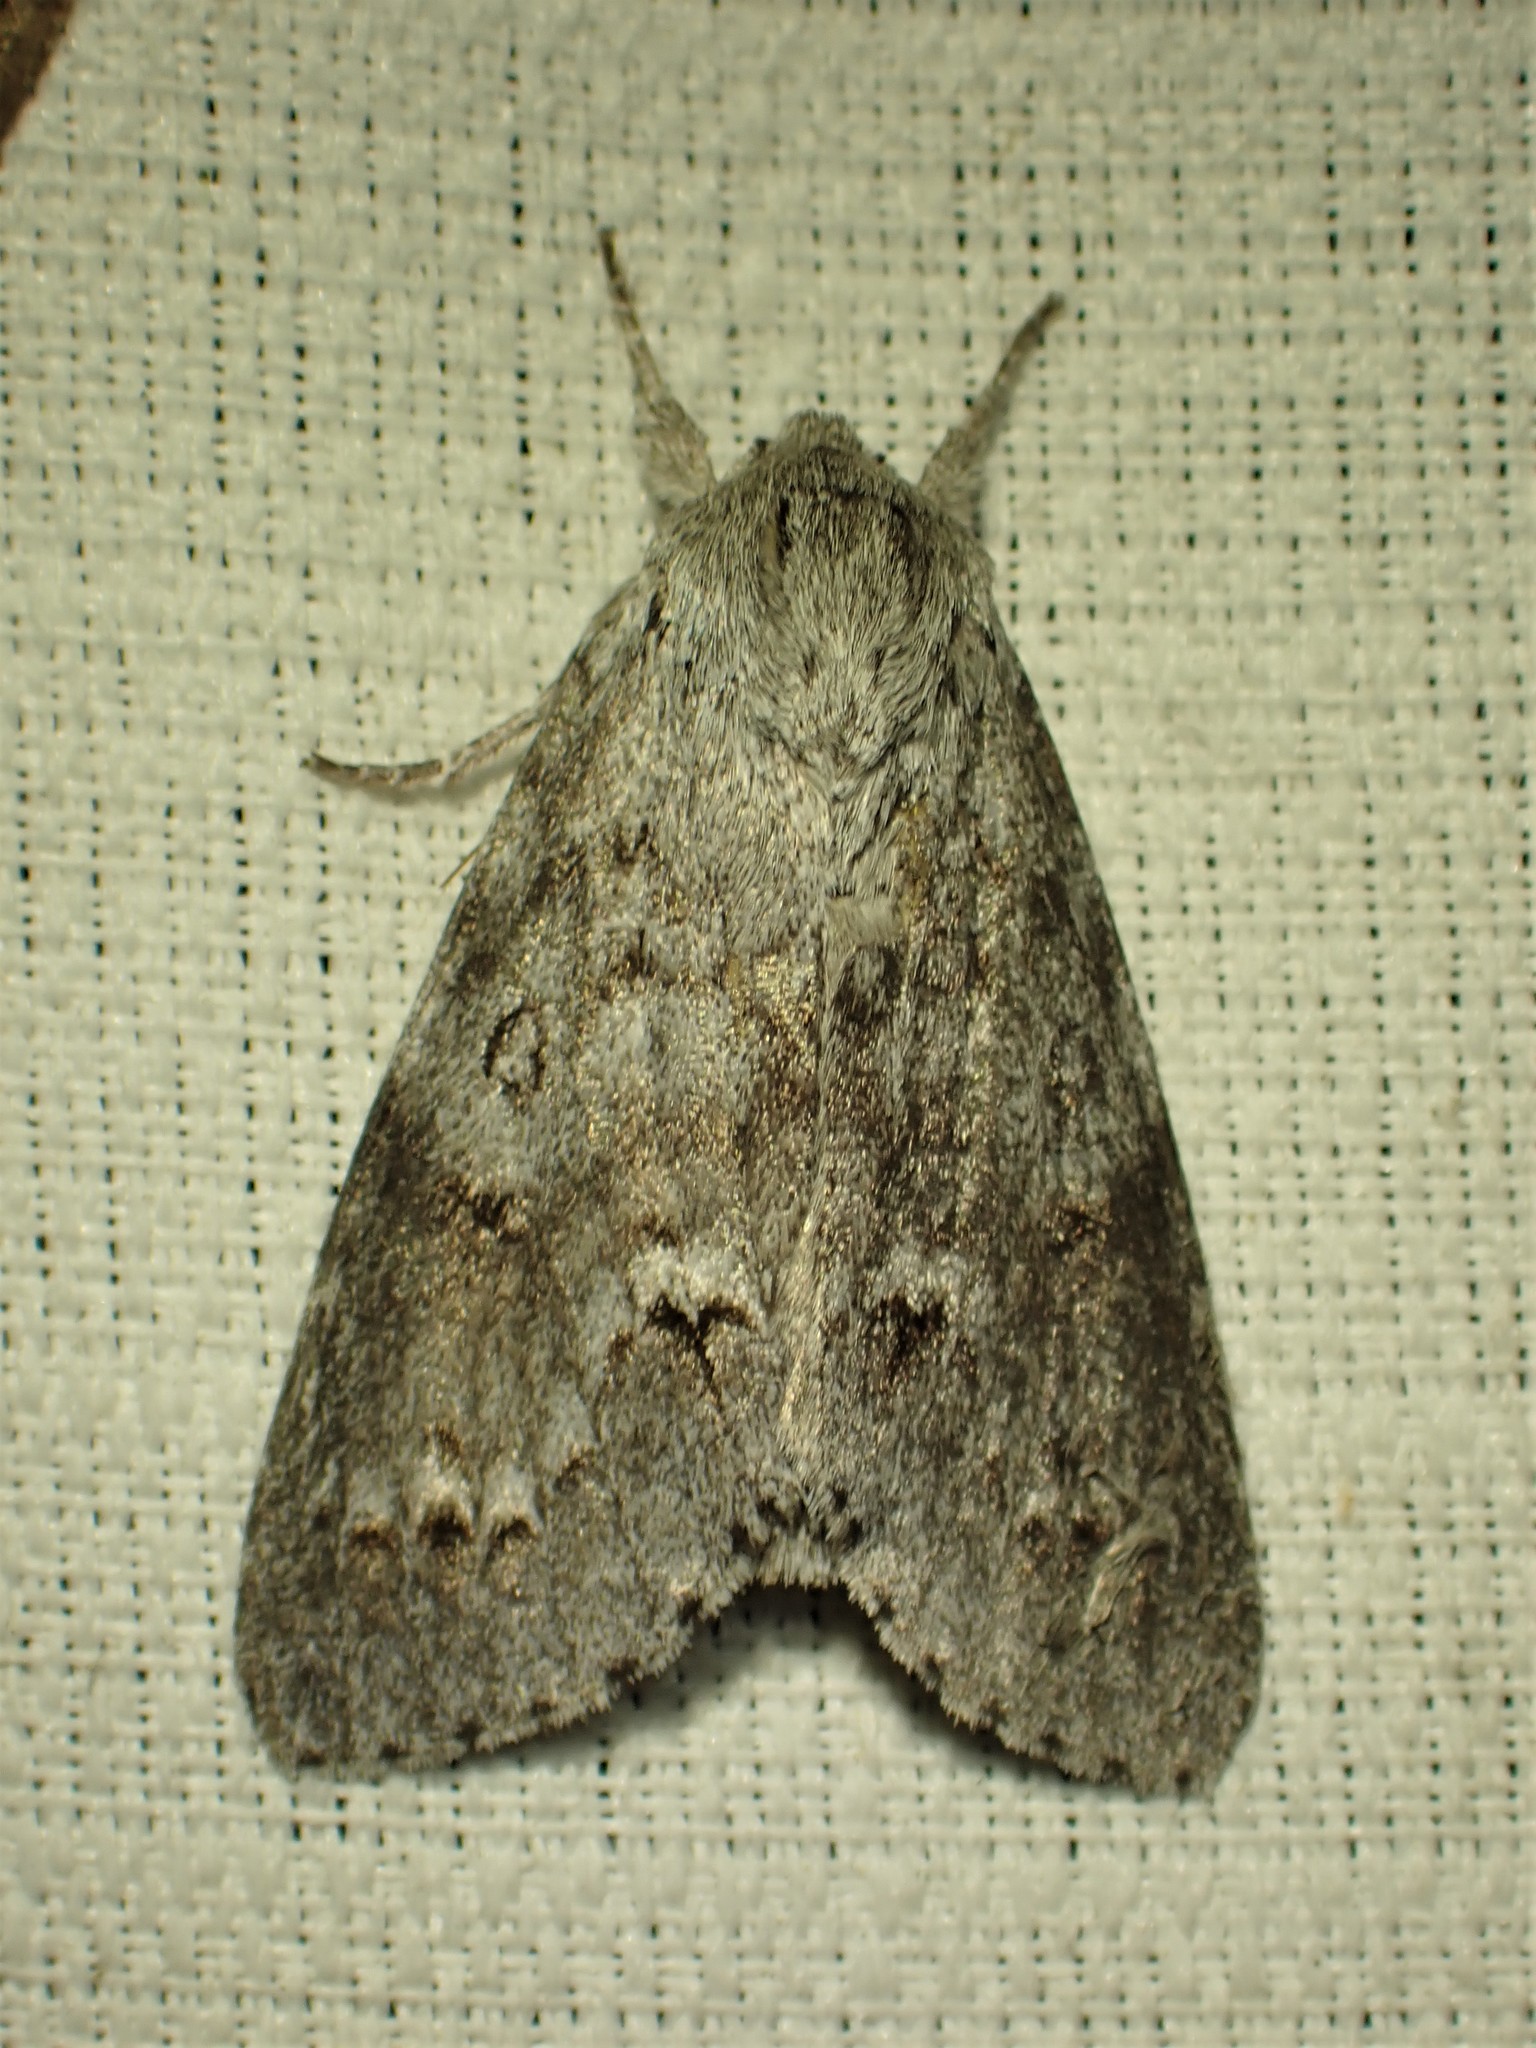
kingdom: Animalia
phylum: Arthropoda
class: Insecta
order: Lepidoptera
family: Noctuidae
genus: Acronicta
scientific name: Acronicta insita
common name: Large gray dagger
